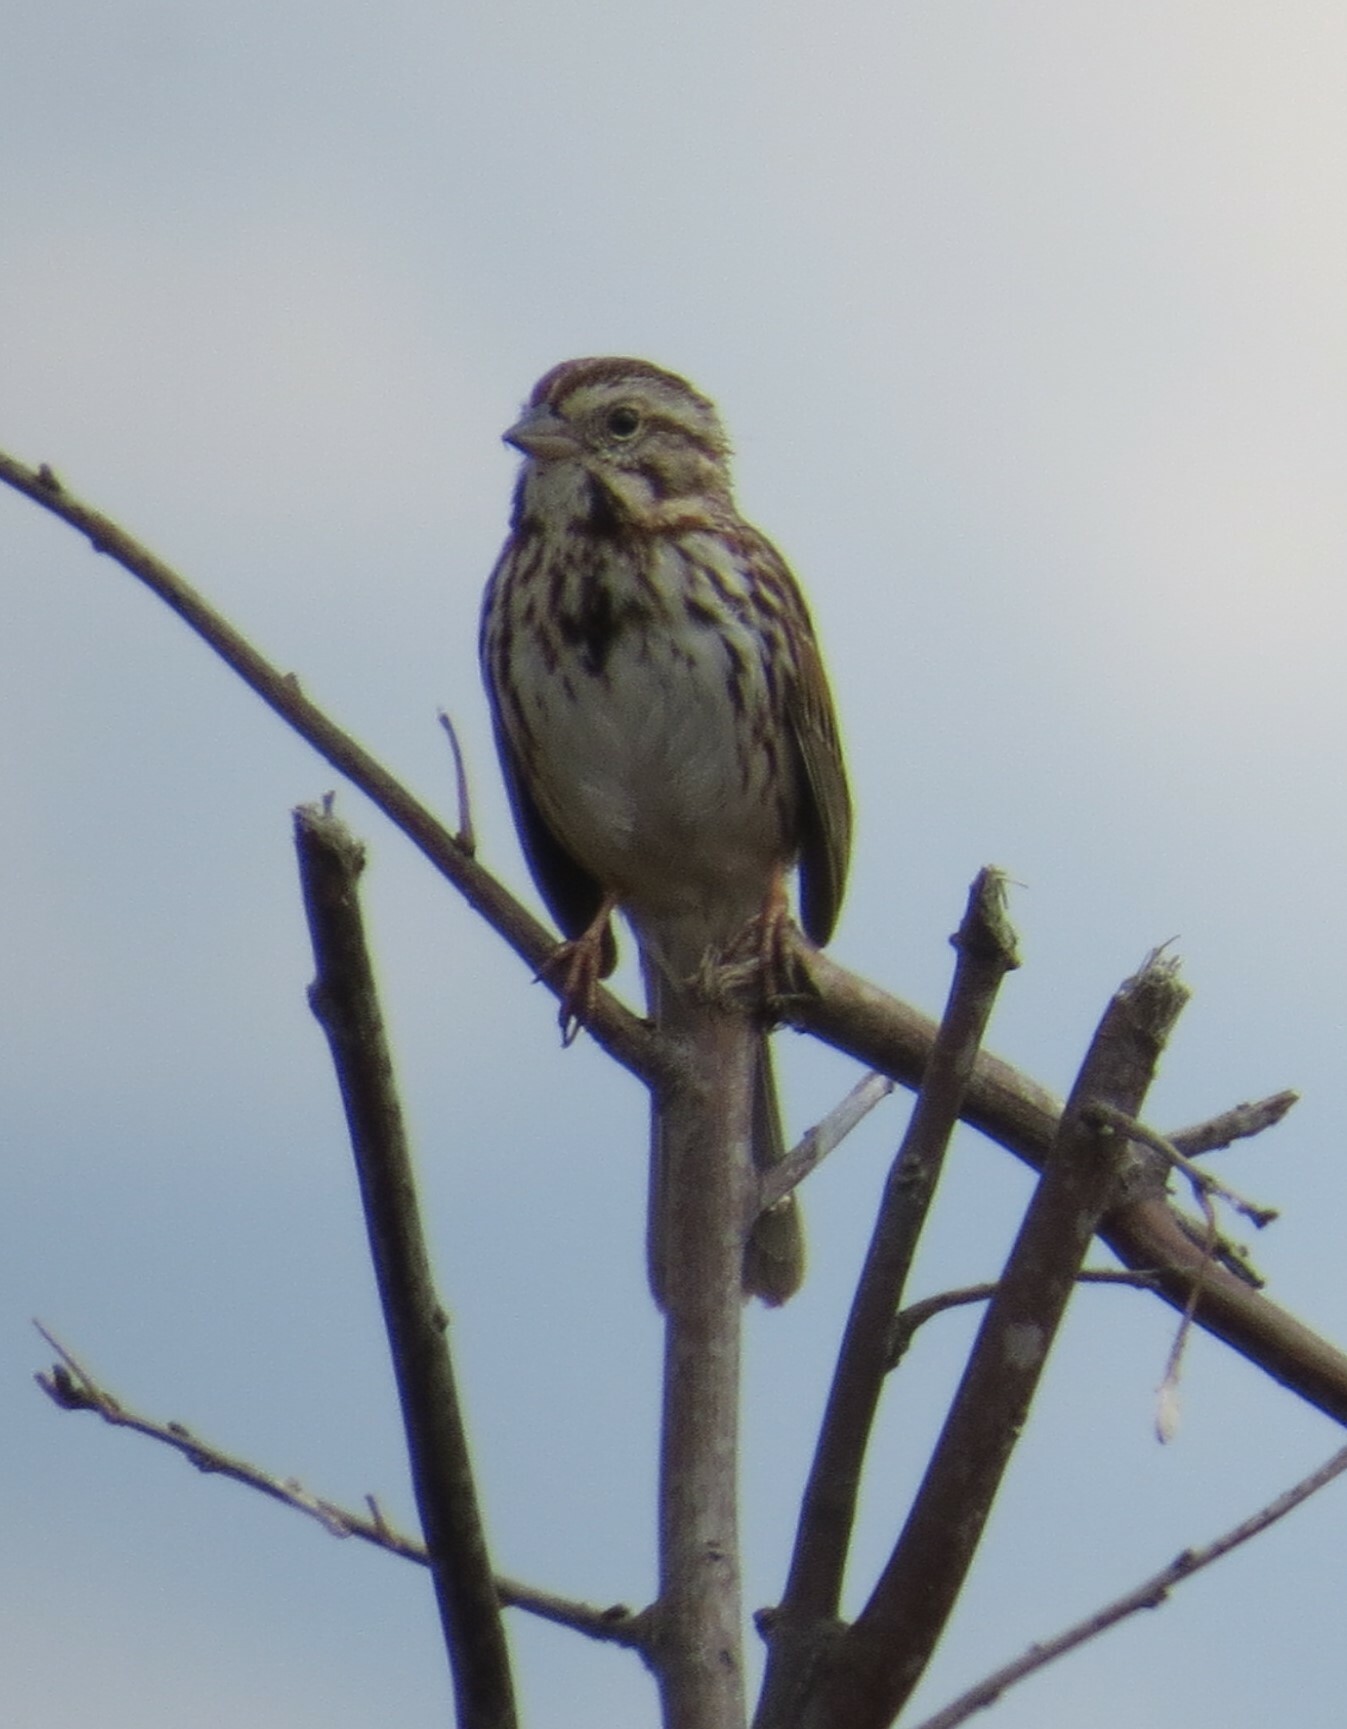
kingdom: Animalia
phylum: Chordata
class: Aves
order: Passeriformes
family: Passerellidae
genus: Melospiza
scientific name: Melospiza melodia
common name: Song sparrow
